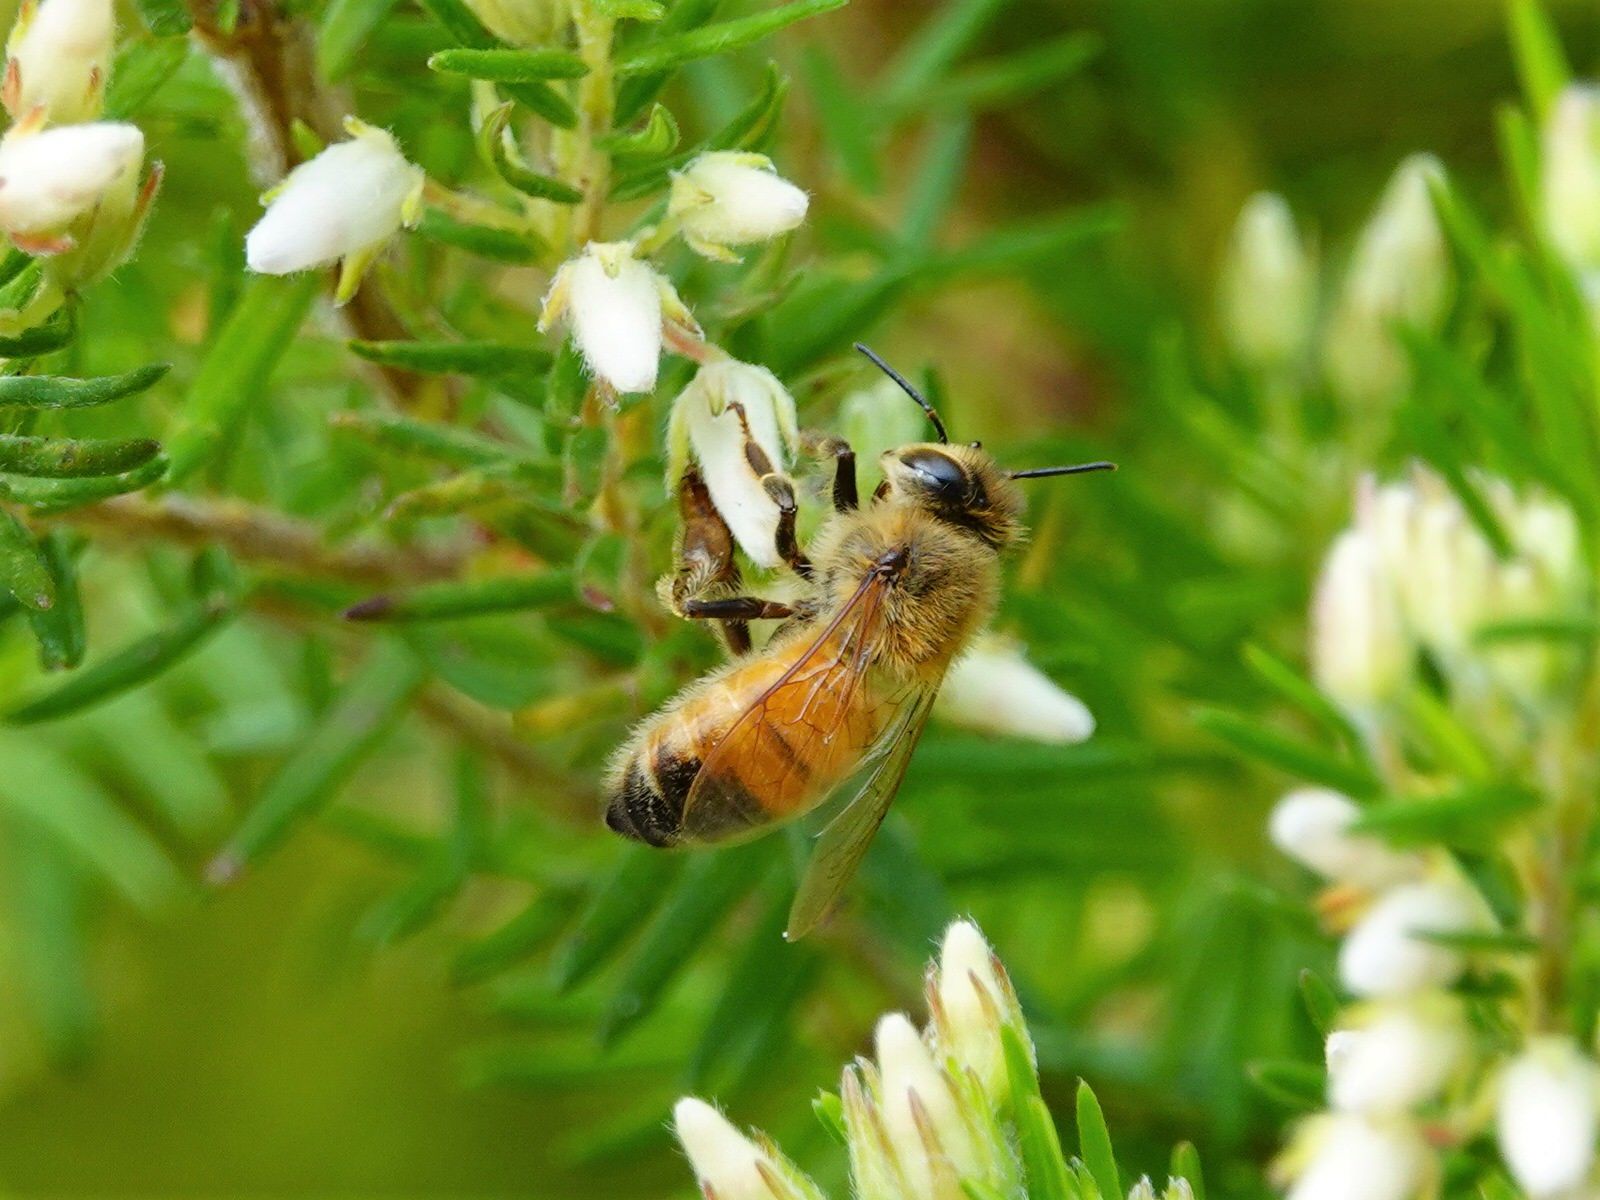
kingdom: Animalia
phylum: Arthropoda
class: Insecta
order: Hymenoptera
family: Apidae
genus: Apis
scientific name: Apis mellifera
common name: Honey bee
